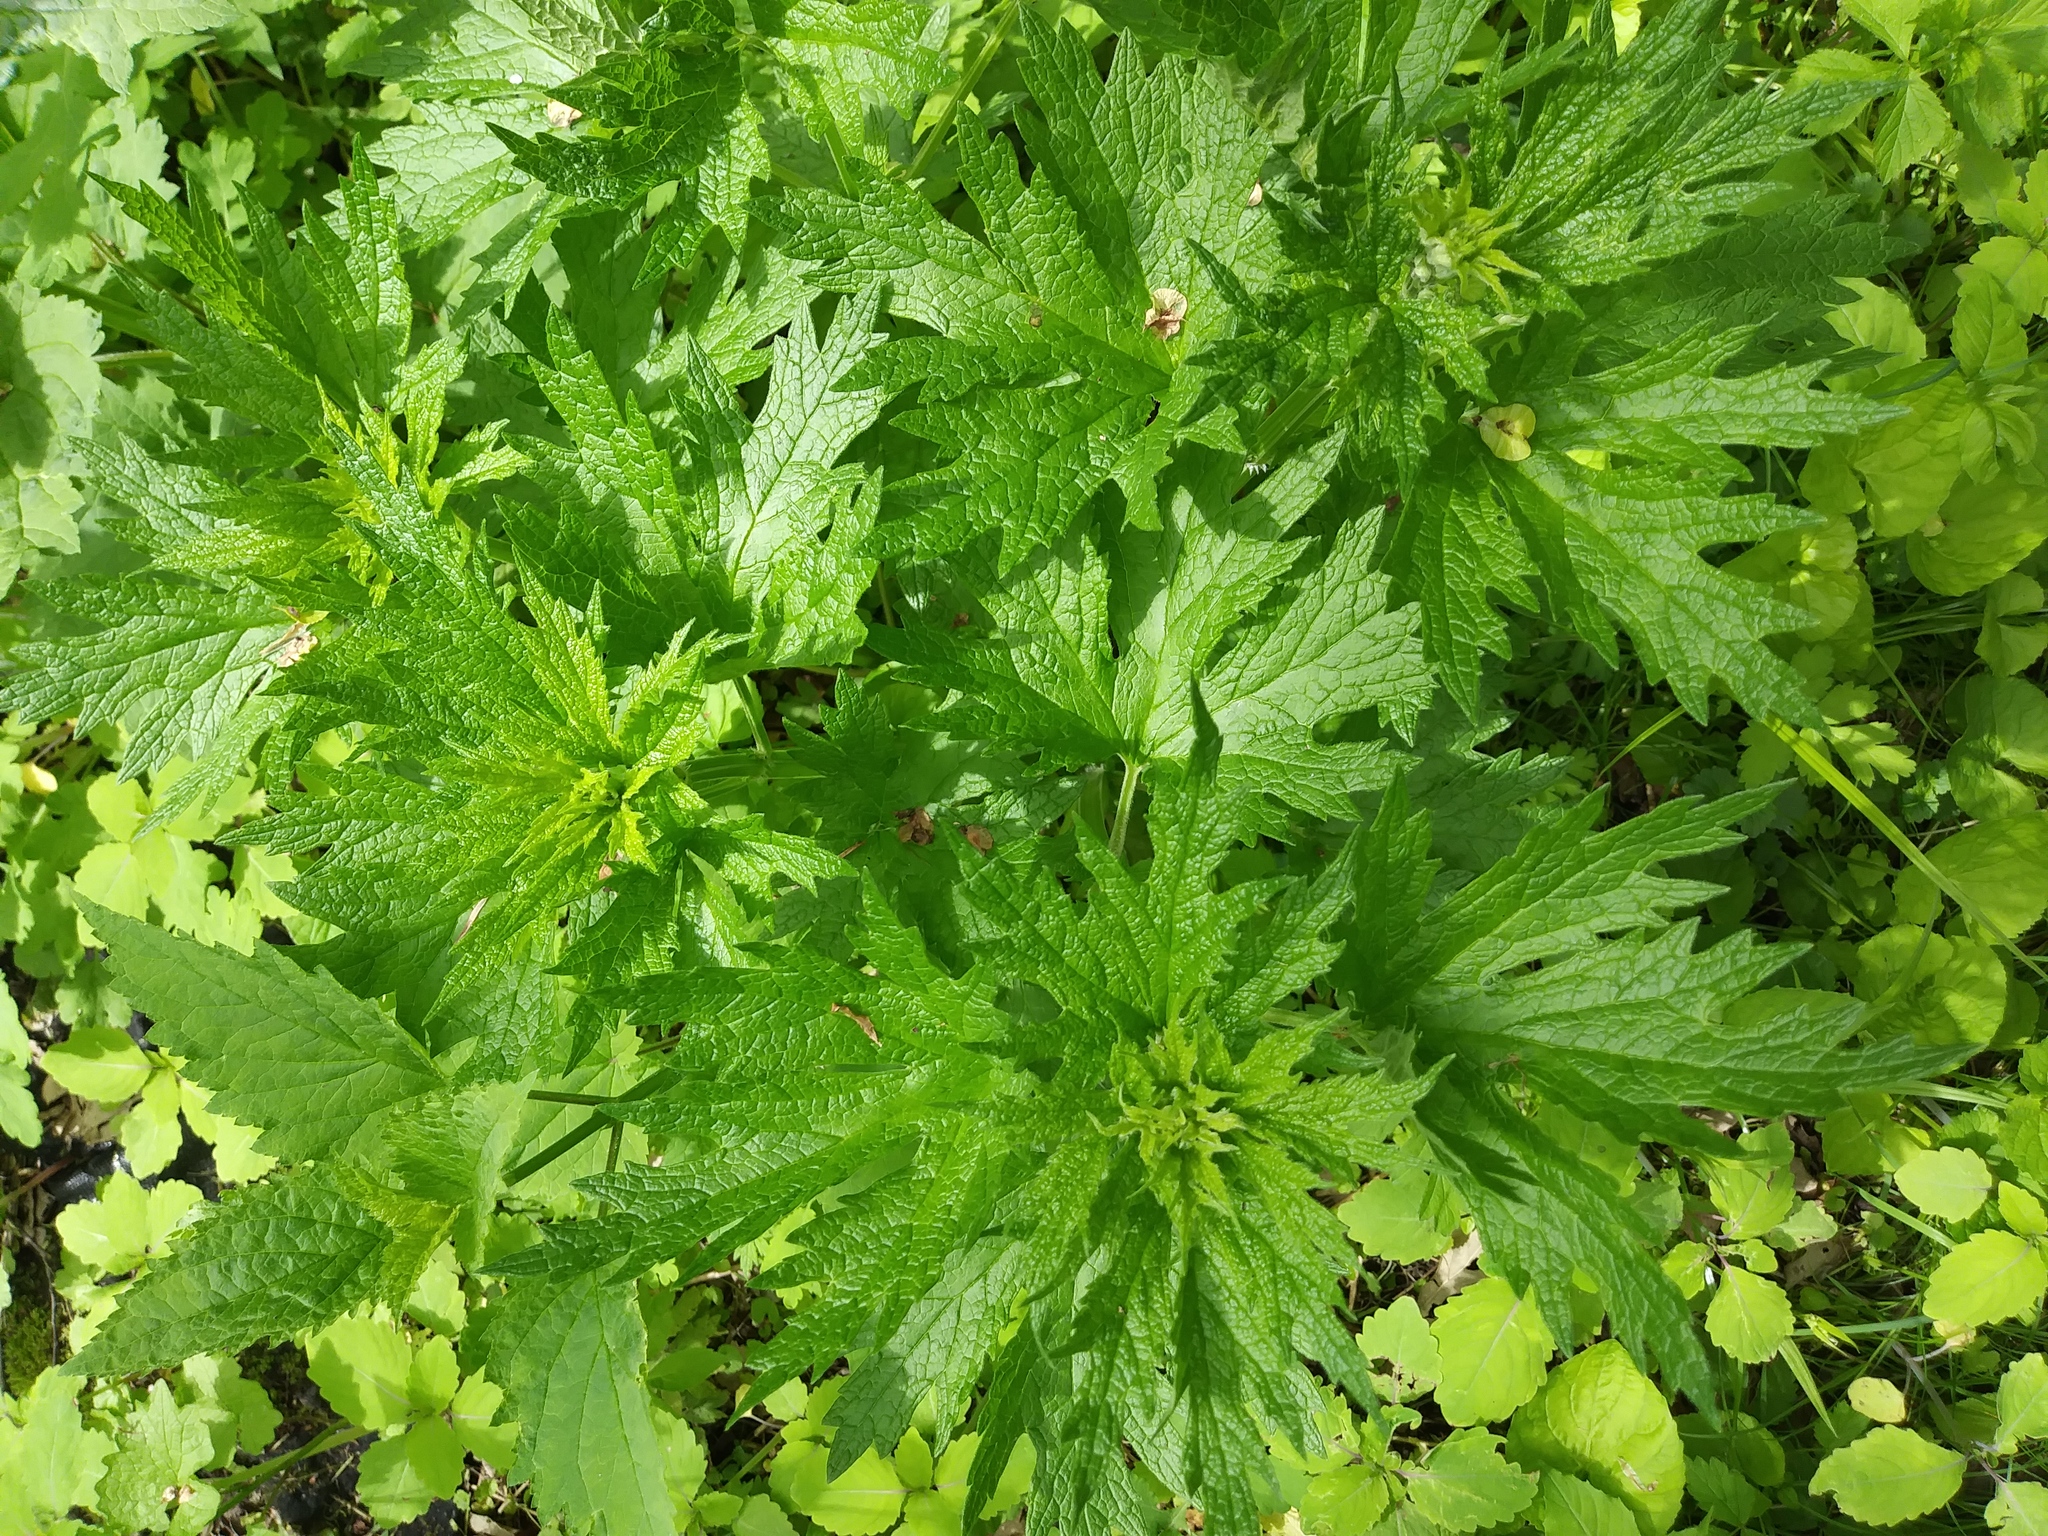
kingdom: Plantae
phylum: Tracheophyta
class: Magnoliopsida
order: Lamiales
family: Lamiaceae
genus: Leonurus
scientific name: Leonurus cardiaca
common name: Motherwort
